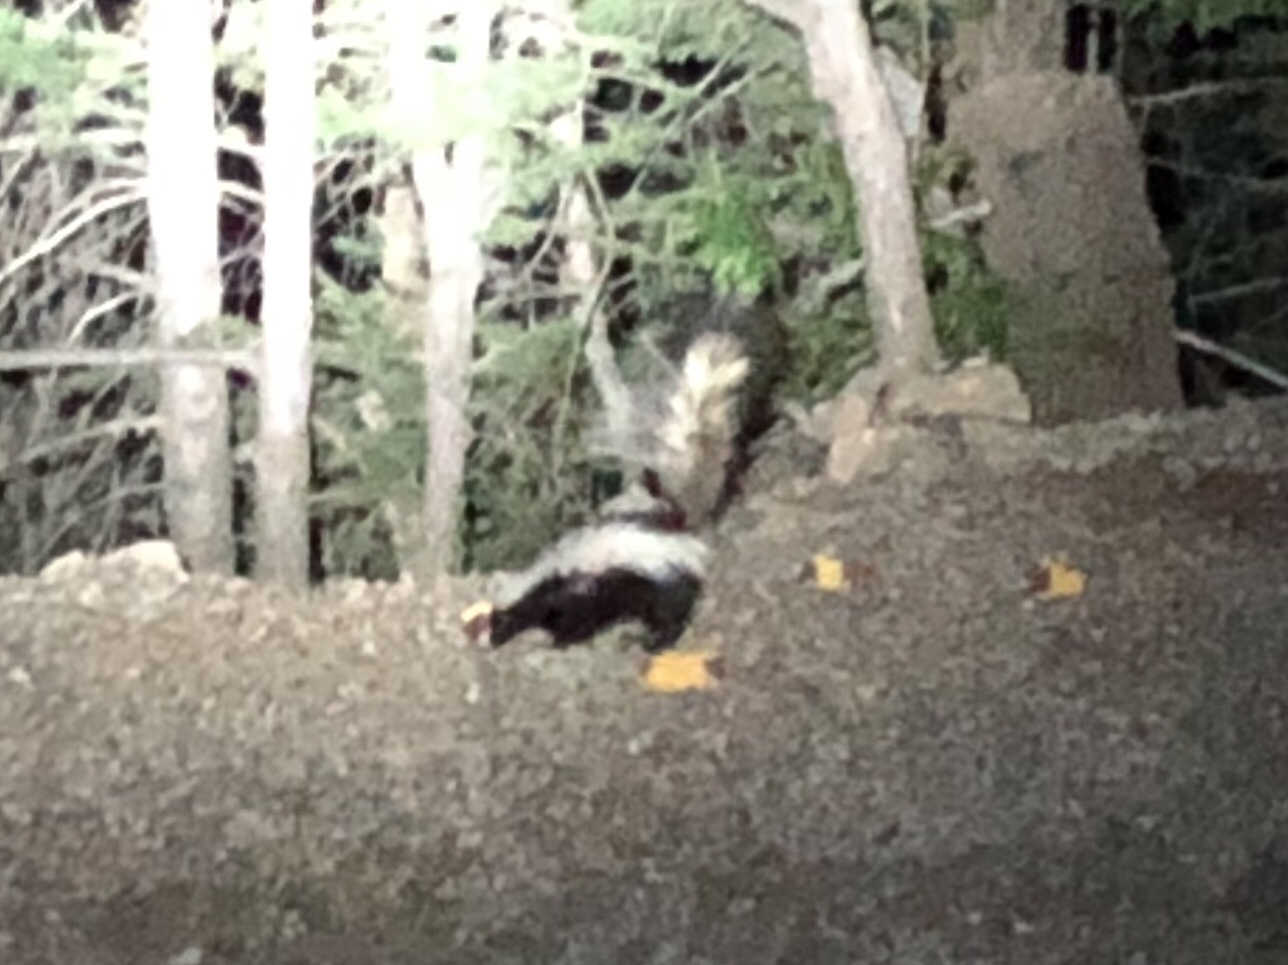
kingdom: Animalia
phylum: Chordata
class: Mammalia
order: Carnivora
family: Mephitidae
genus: Mephitis
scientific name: Mephitis mephitis
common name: Striped skunk
